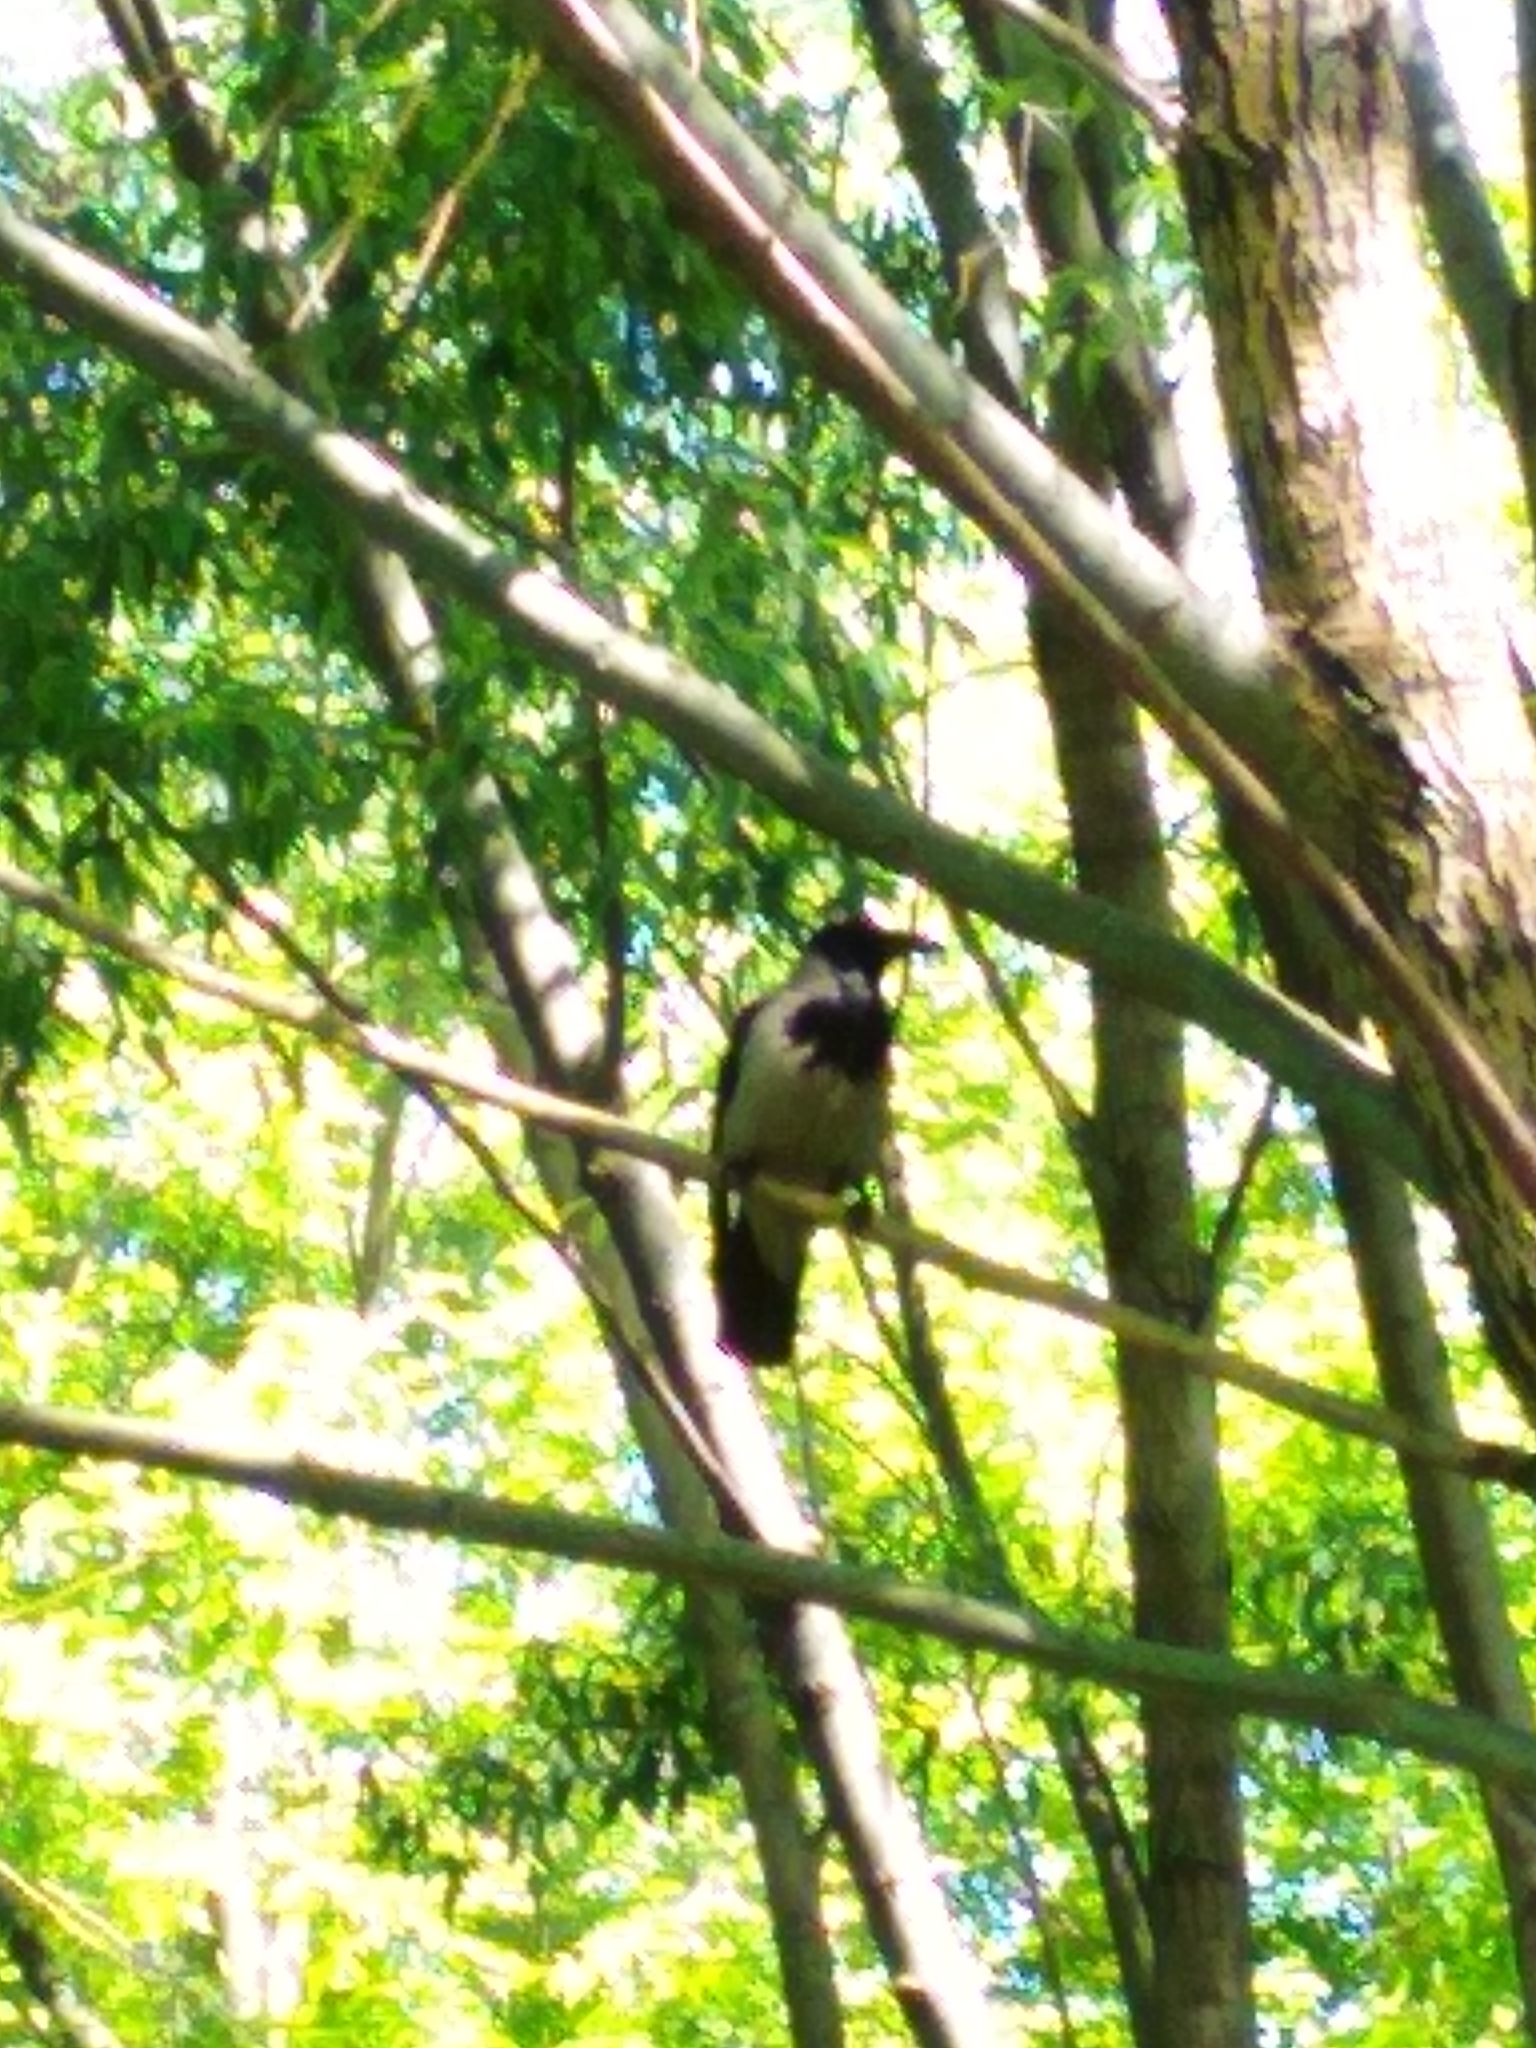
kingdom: Animalia
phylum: Chordata
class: Aves
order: Passeriformes
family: Corvidae
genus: Corvus
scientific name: Corvus cornix
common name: Hooded crow
